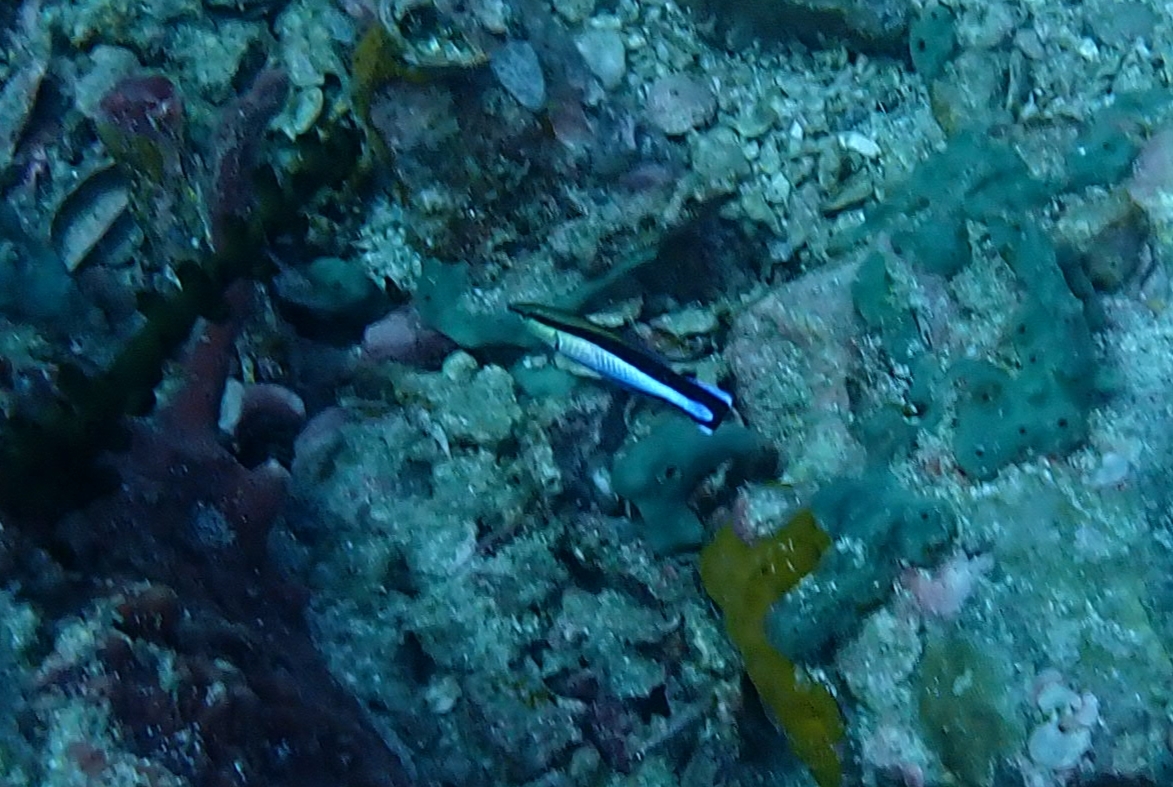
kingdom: Animalia
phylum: Chordata
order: Perciformes
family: Labridae
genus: Labroides
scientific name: Labroides dimidiatus
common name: Blue diesel wrasse
